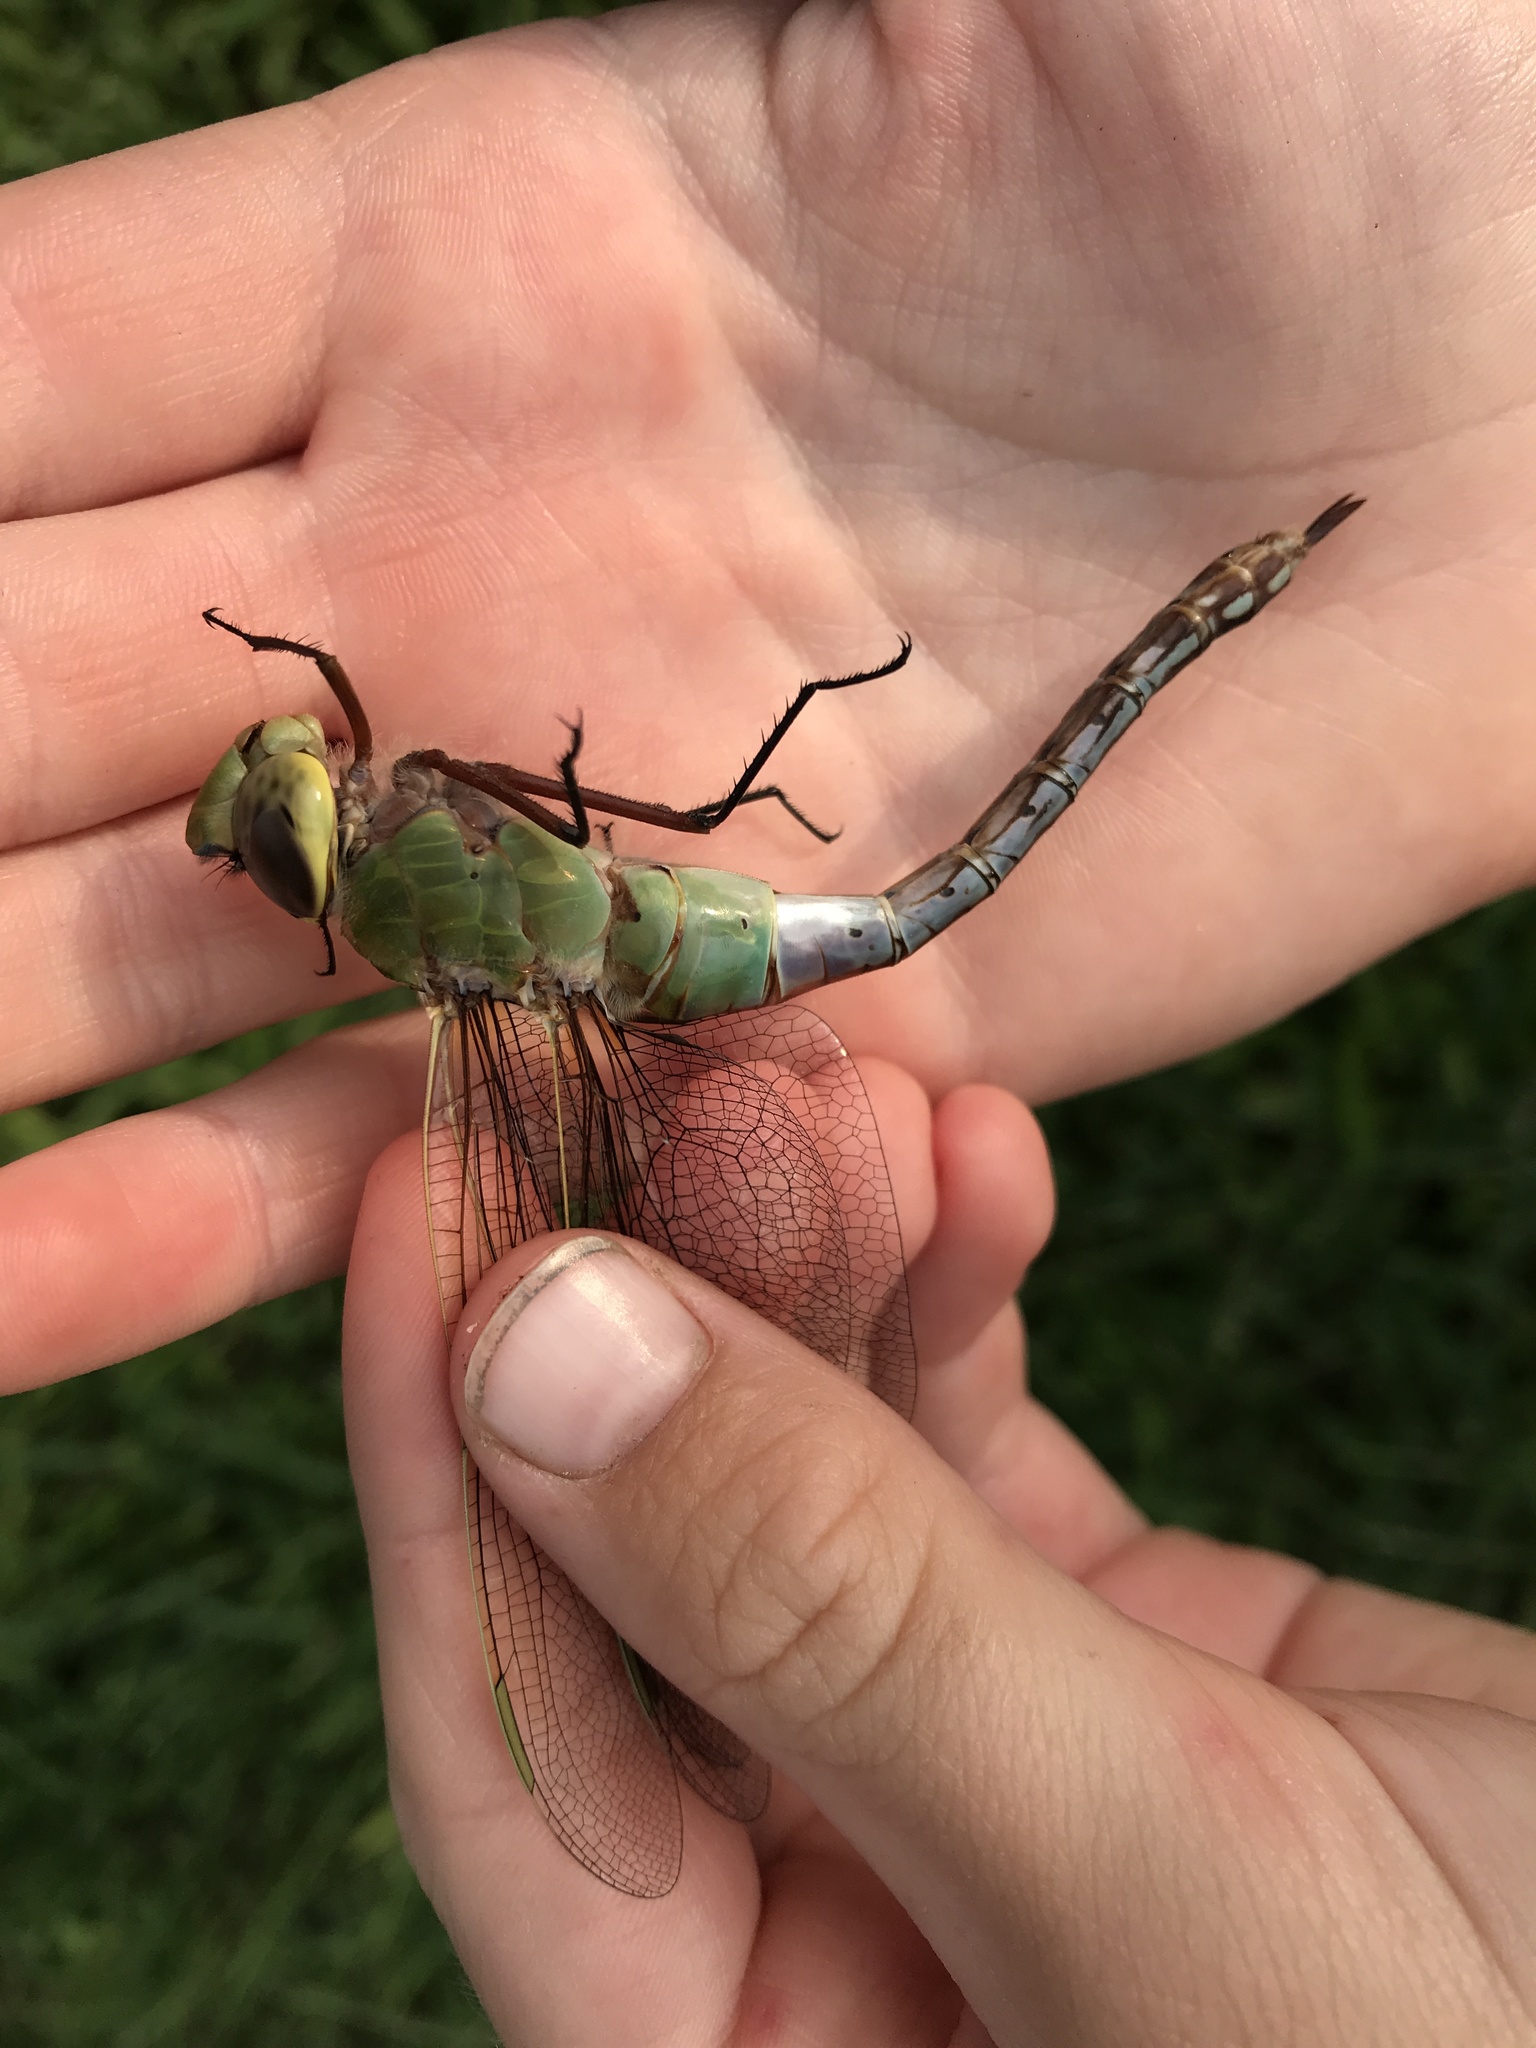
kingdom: Animalia
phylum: Arthropoda
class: Insecta
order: Odonata
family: Aeshnidae
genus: Anax
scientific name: Anax junius
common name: Common green darner
